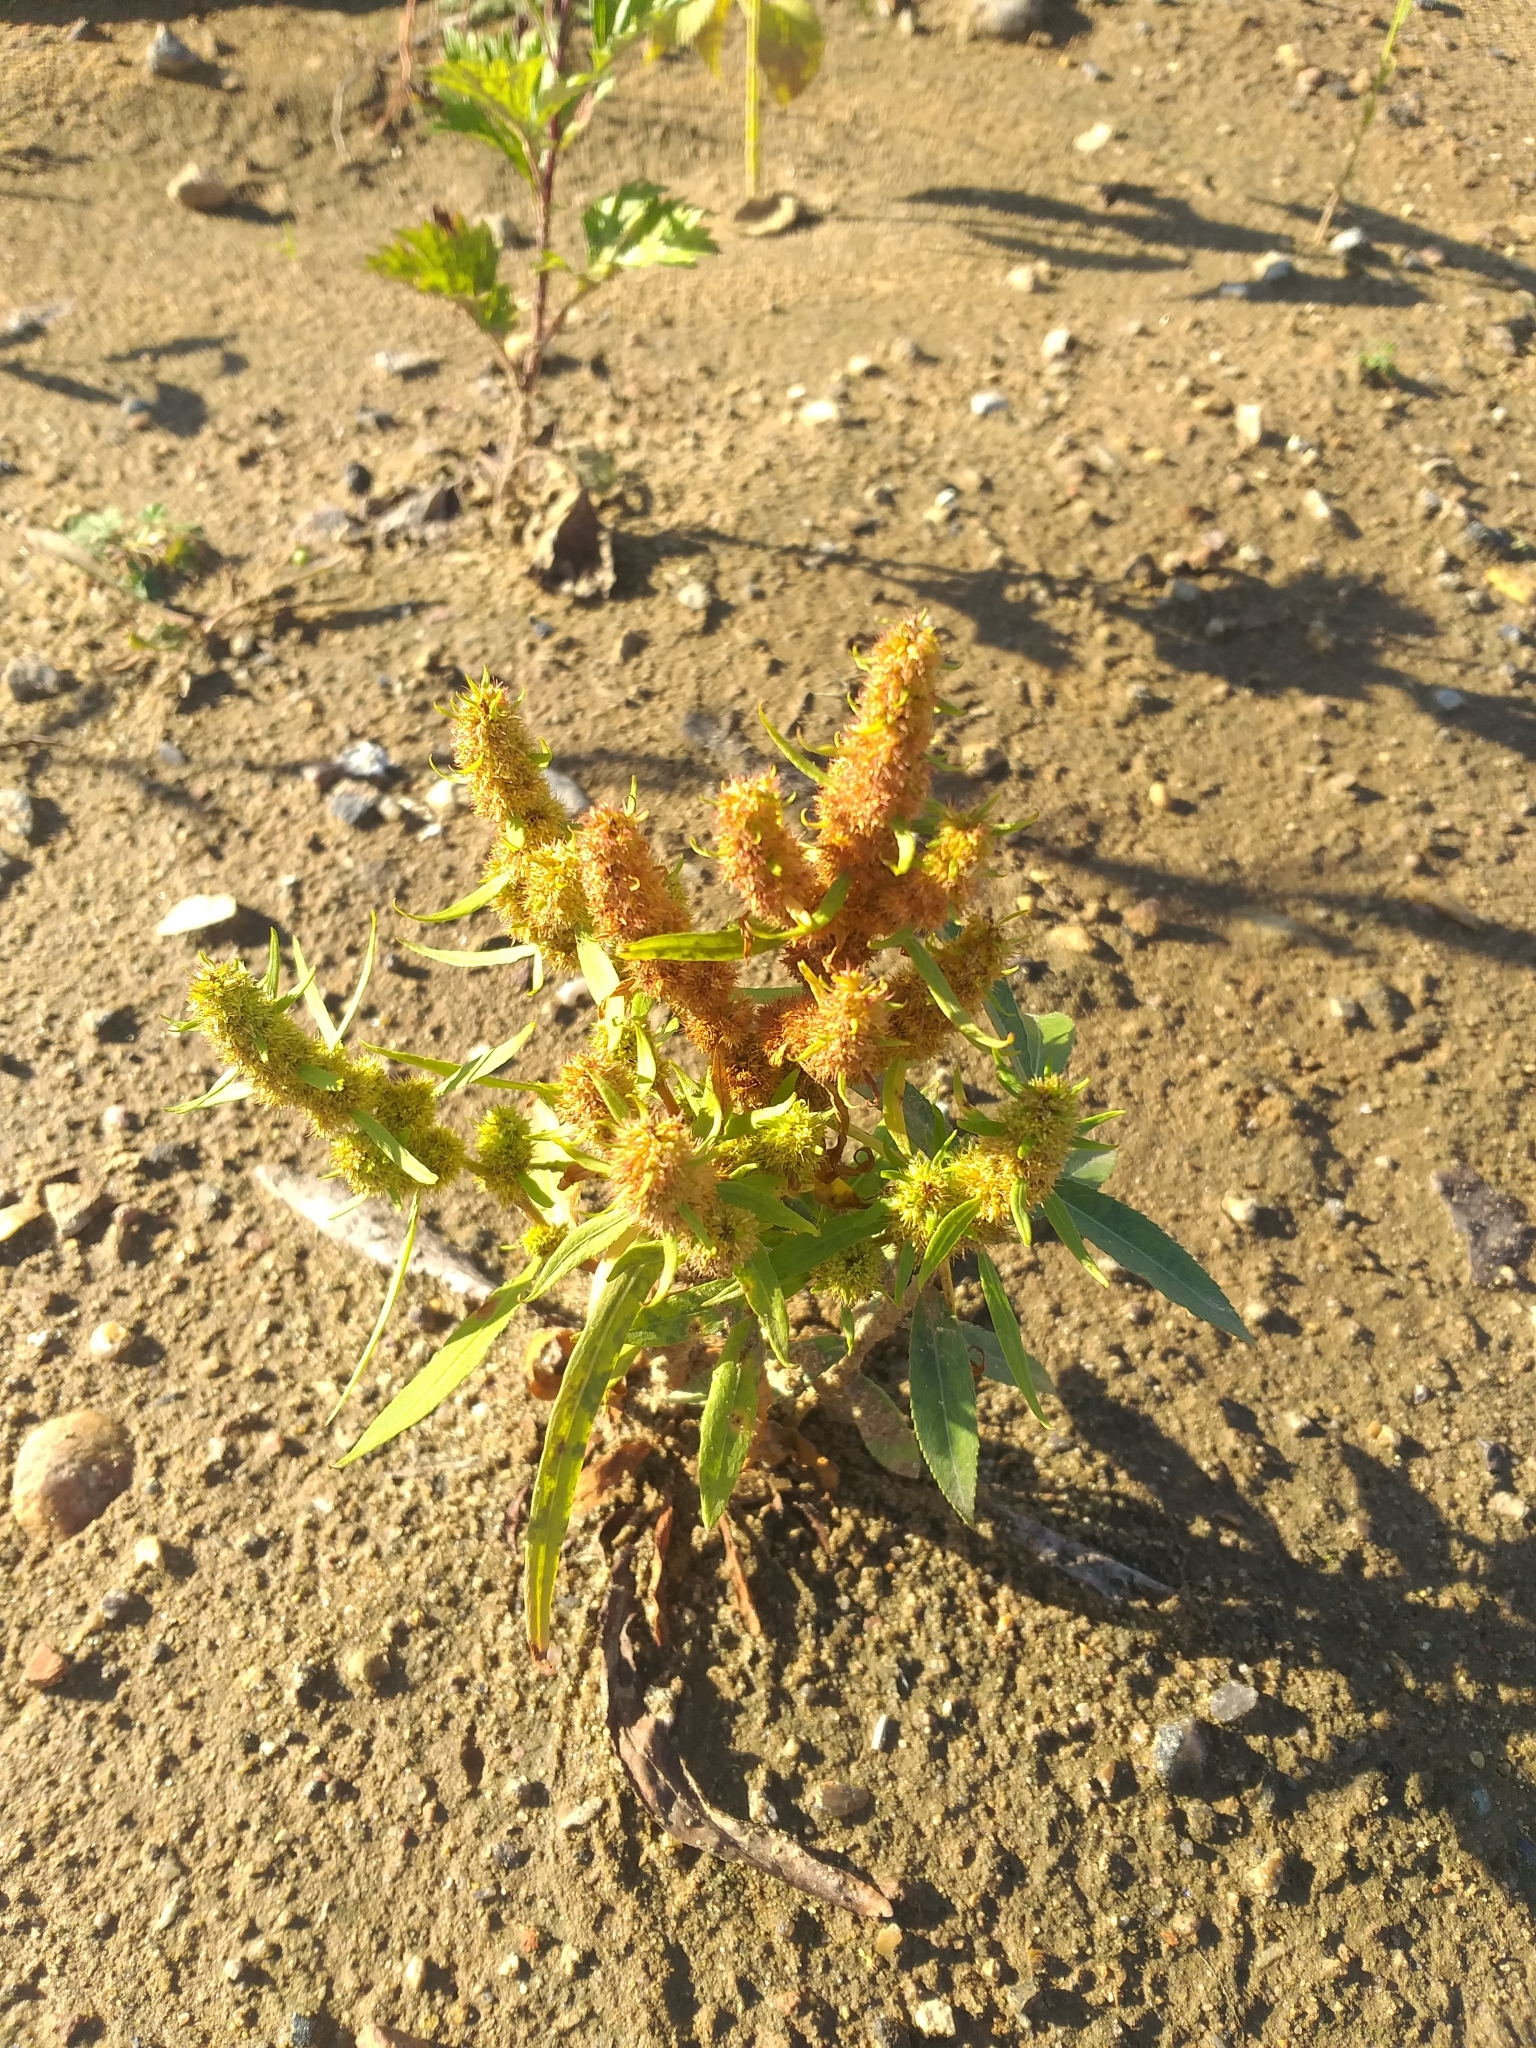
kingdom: Plantae
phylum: Tracheophyta
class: Magnoliopsida
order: Caryophyllales
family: Polygonaceae
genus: Rumex
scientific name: Rumex maritimus
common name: Golden dock
